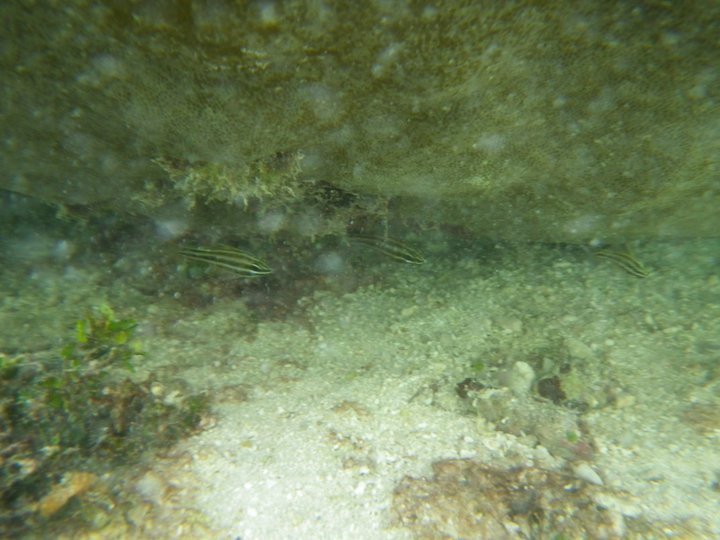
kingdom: Animalia
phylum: Chordata
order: Perciformes
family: Apogonidae
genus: Ostorhinchus
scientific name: Ostorhinchus nigrofasciatus
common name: Blackstripe cardinalfish
